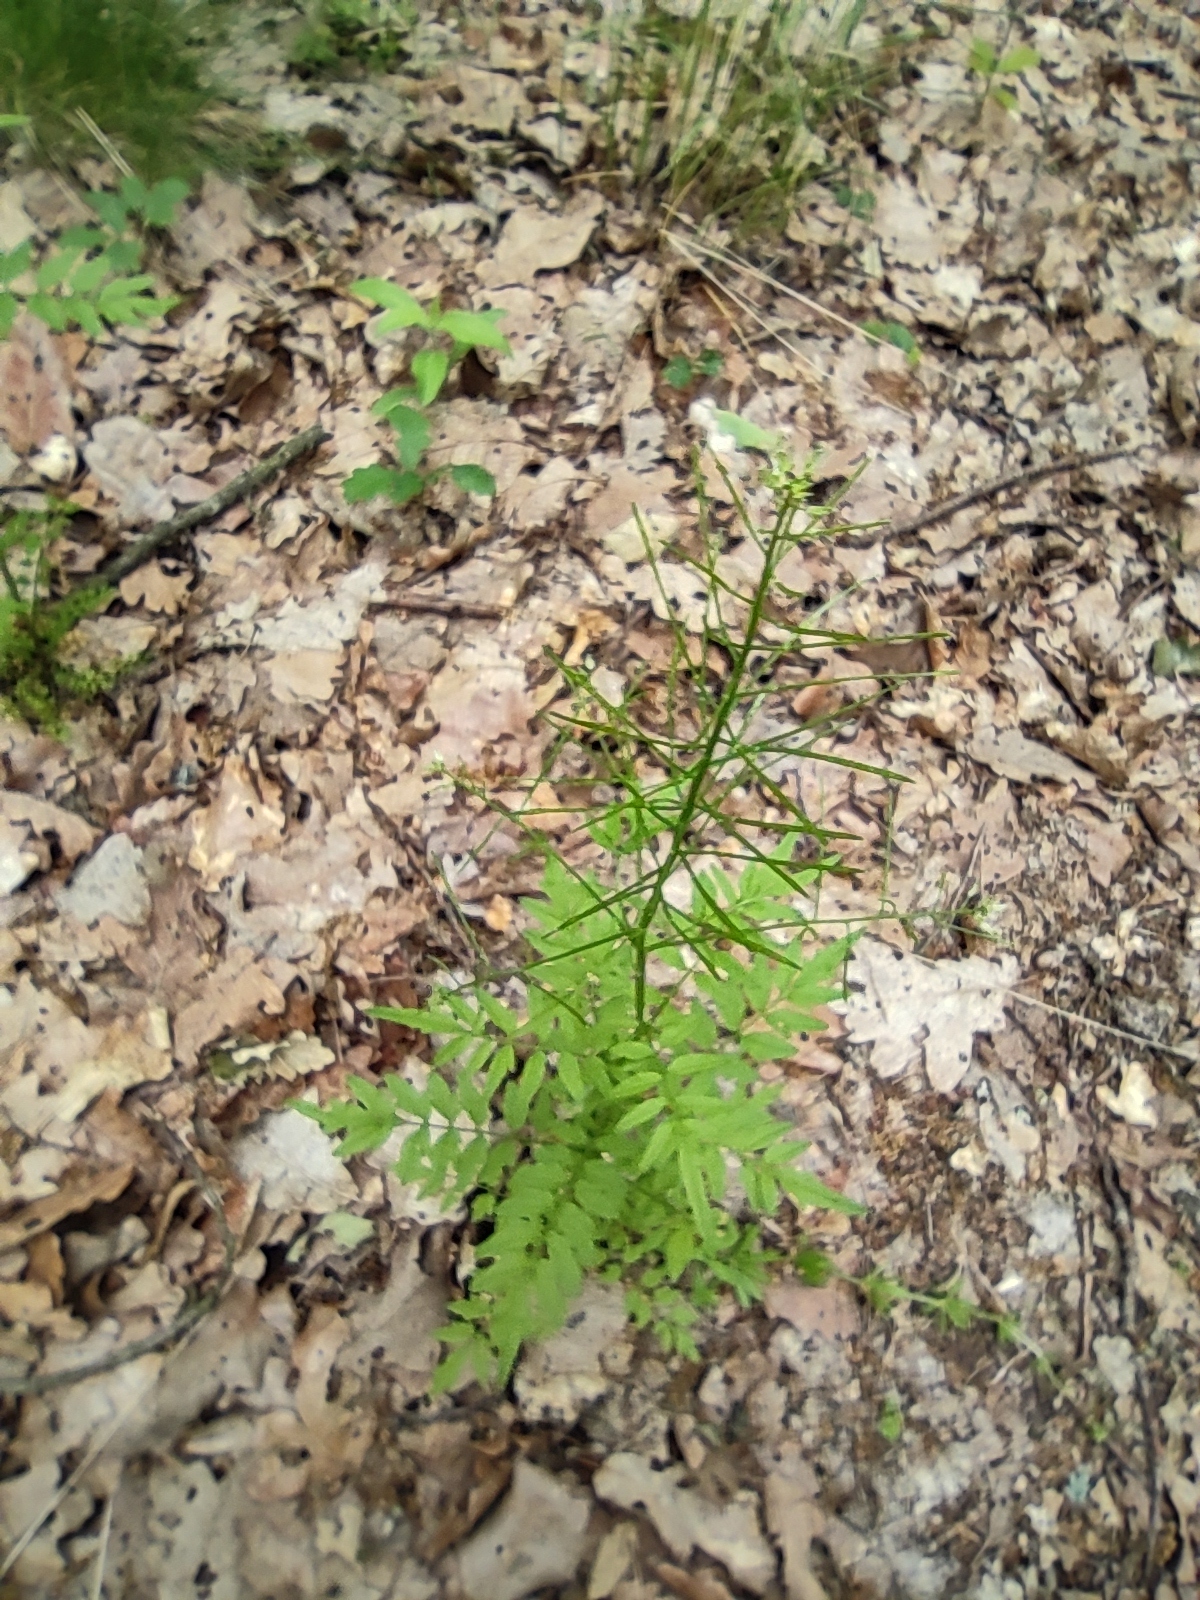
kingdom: Plantae
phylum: Tracheophyta
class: Magnoliopsida
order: Brassicales
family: Brassicaceae
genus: Cardamine
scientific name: Cardamine impatiens
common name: Narrow-leaved bitter-cress
